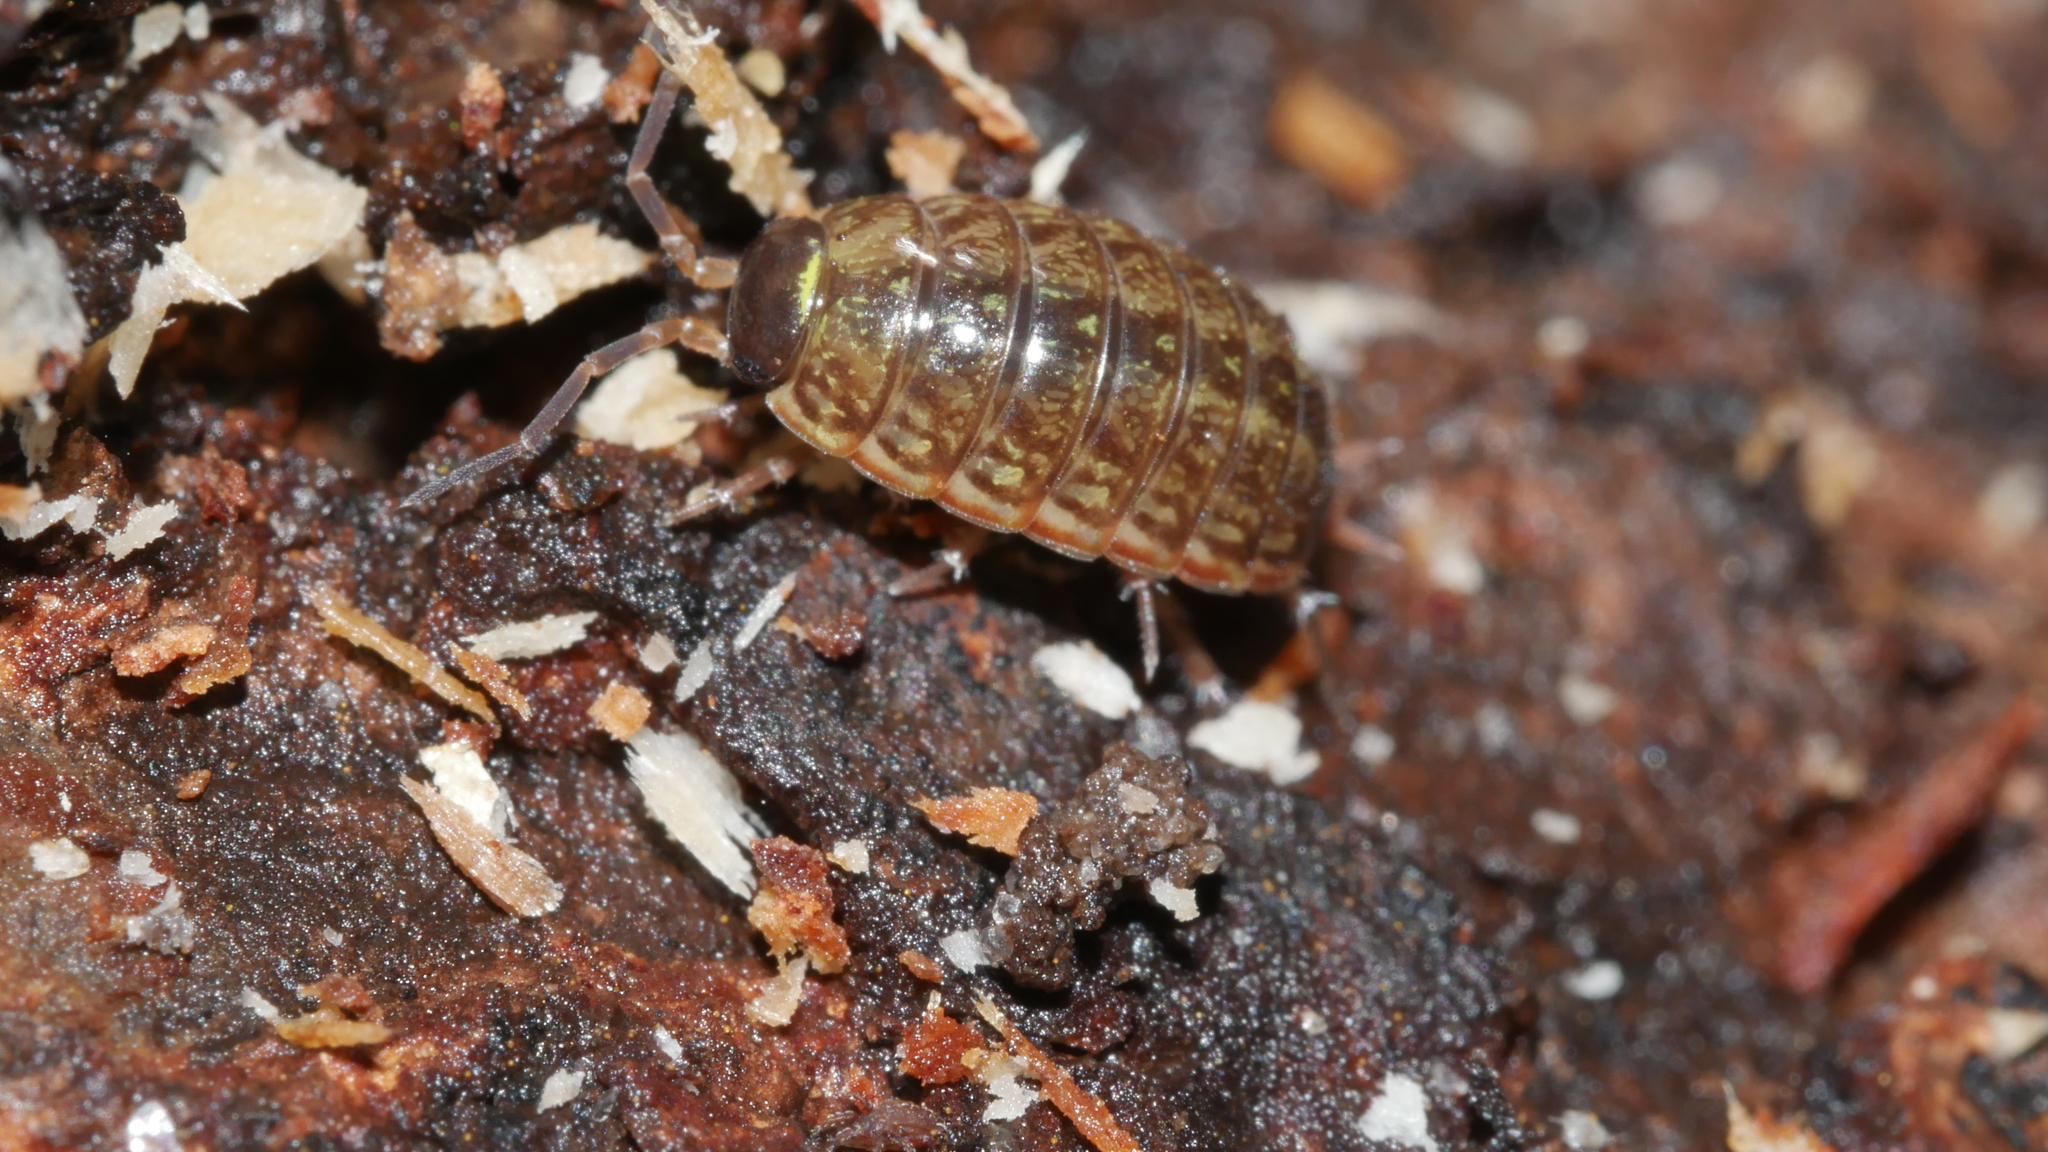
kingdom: Animalia
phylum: Arthropoda
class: Malacostraca
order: Isopoda
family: Philosciidae
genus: Philoscia
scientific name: Philoscia muscorum
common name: Common striped woodlouse
